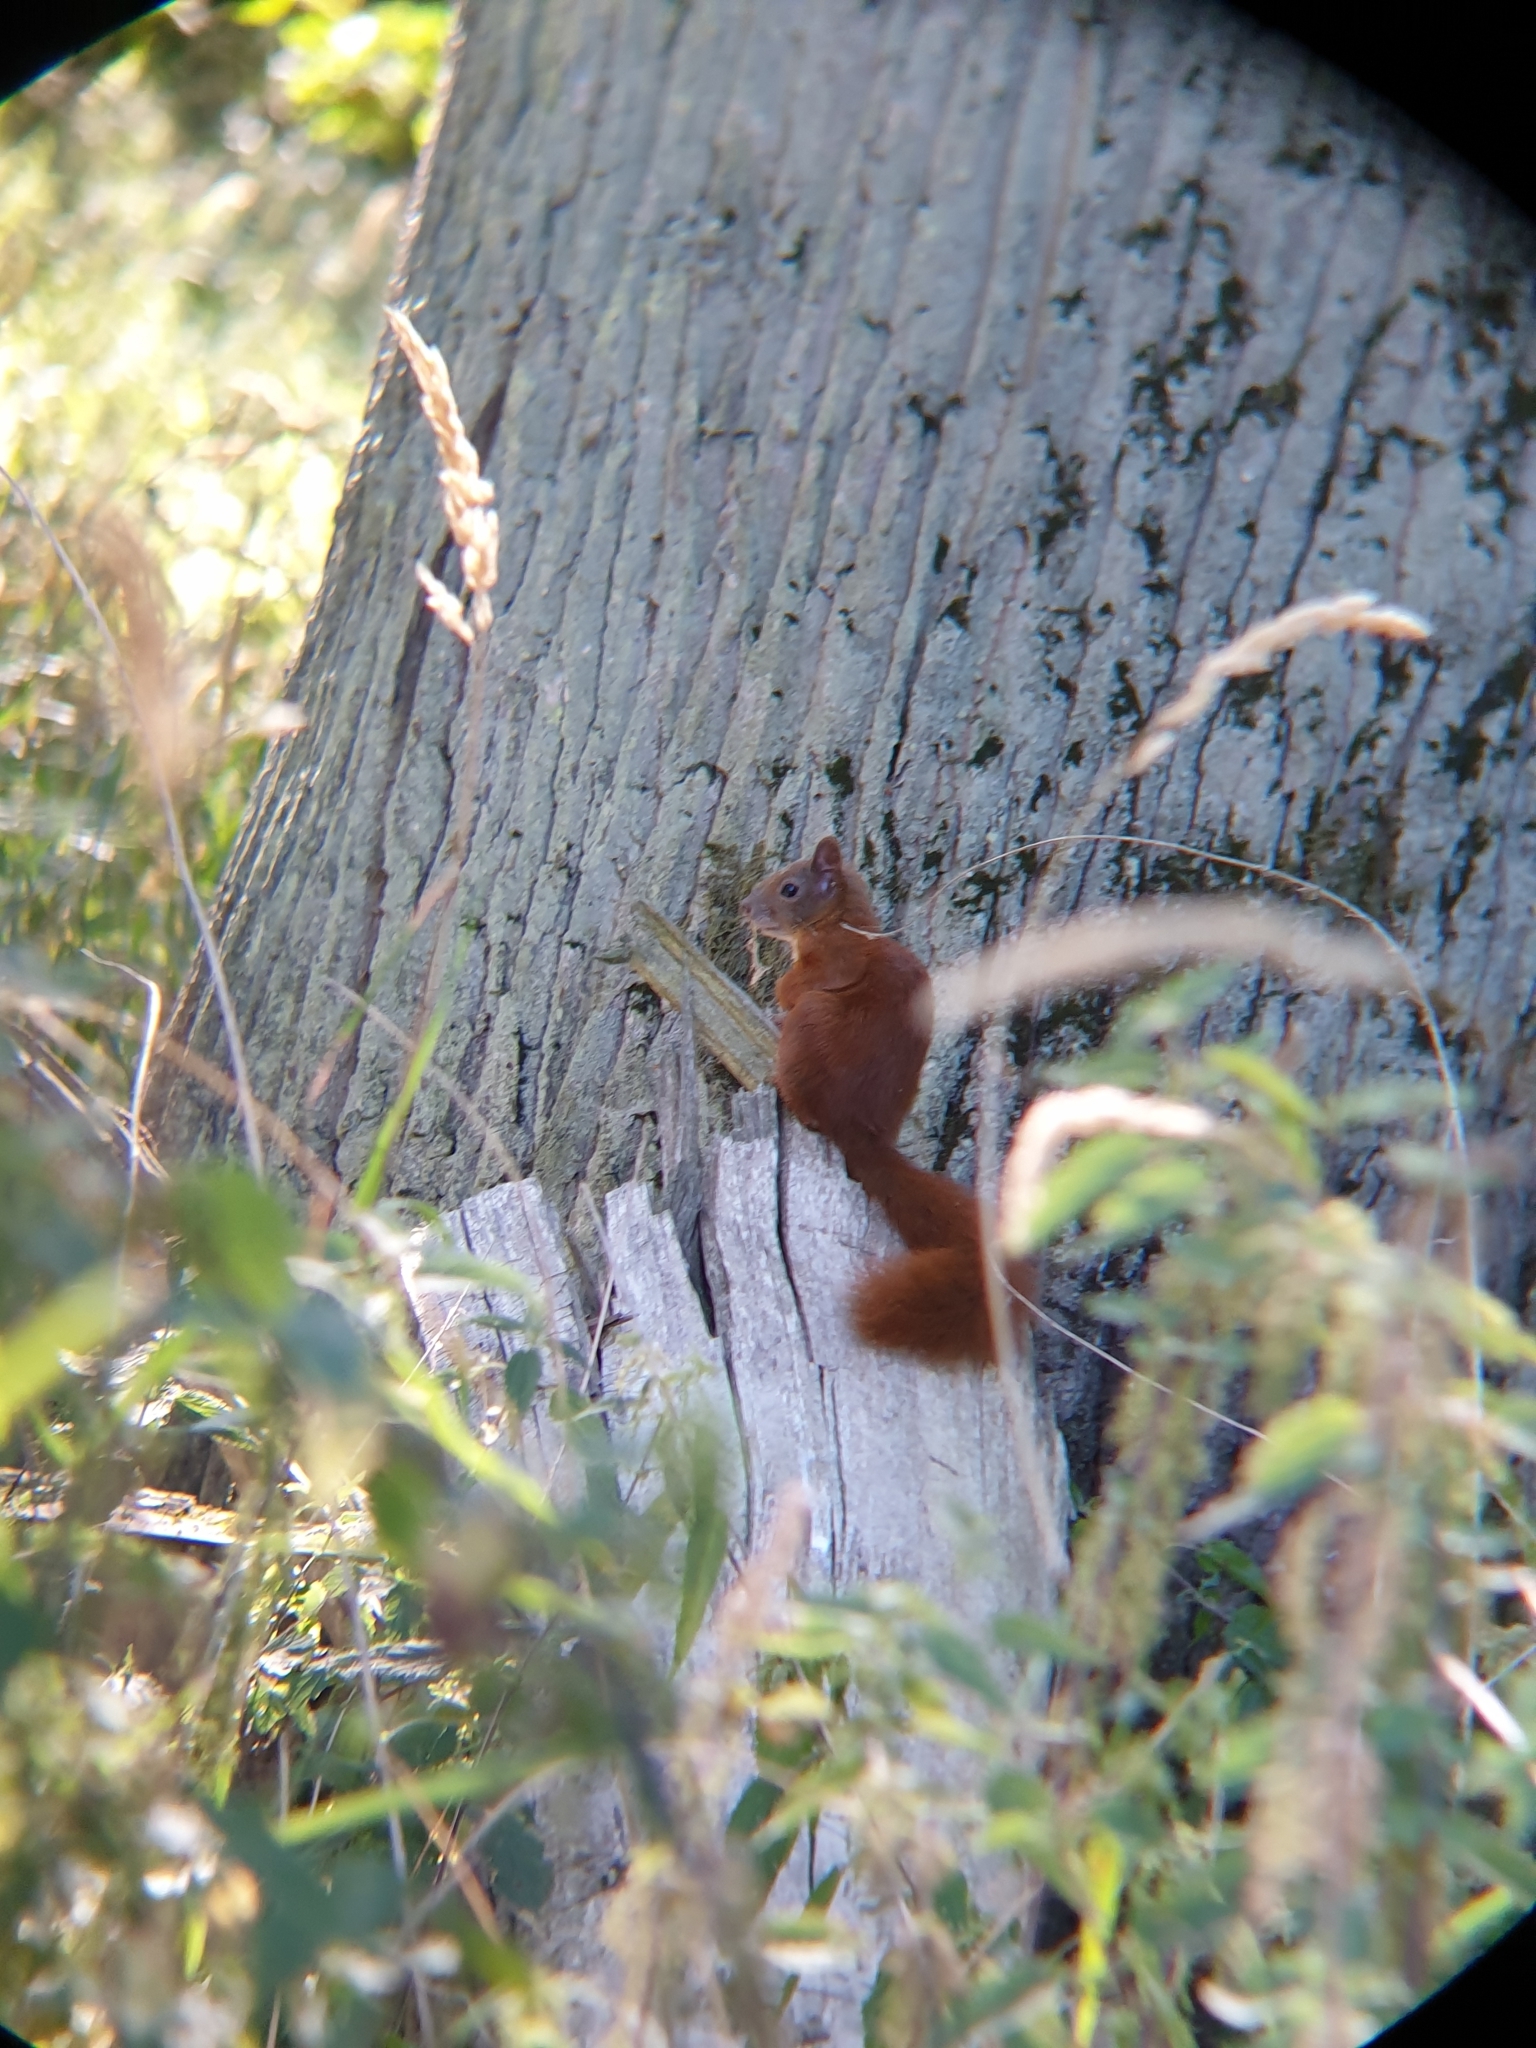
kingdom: Animalia
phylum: Chordata
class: Mammalia
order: Rodentia
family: Sciuridae
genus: Sciurus
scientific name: Sciurus vulgaris
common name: Eurasian red squirrel
